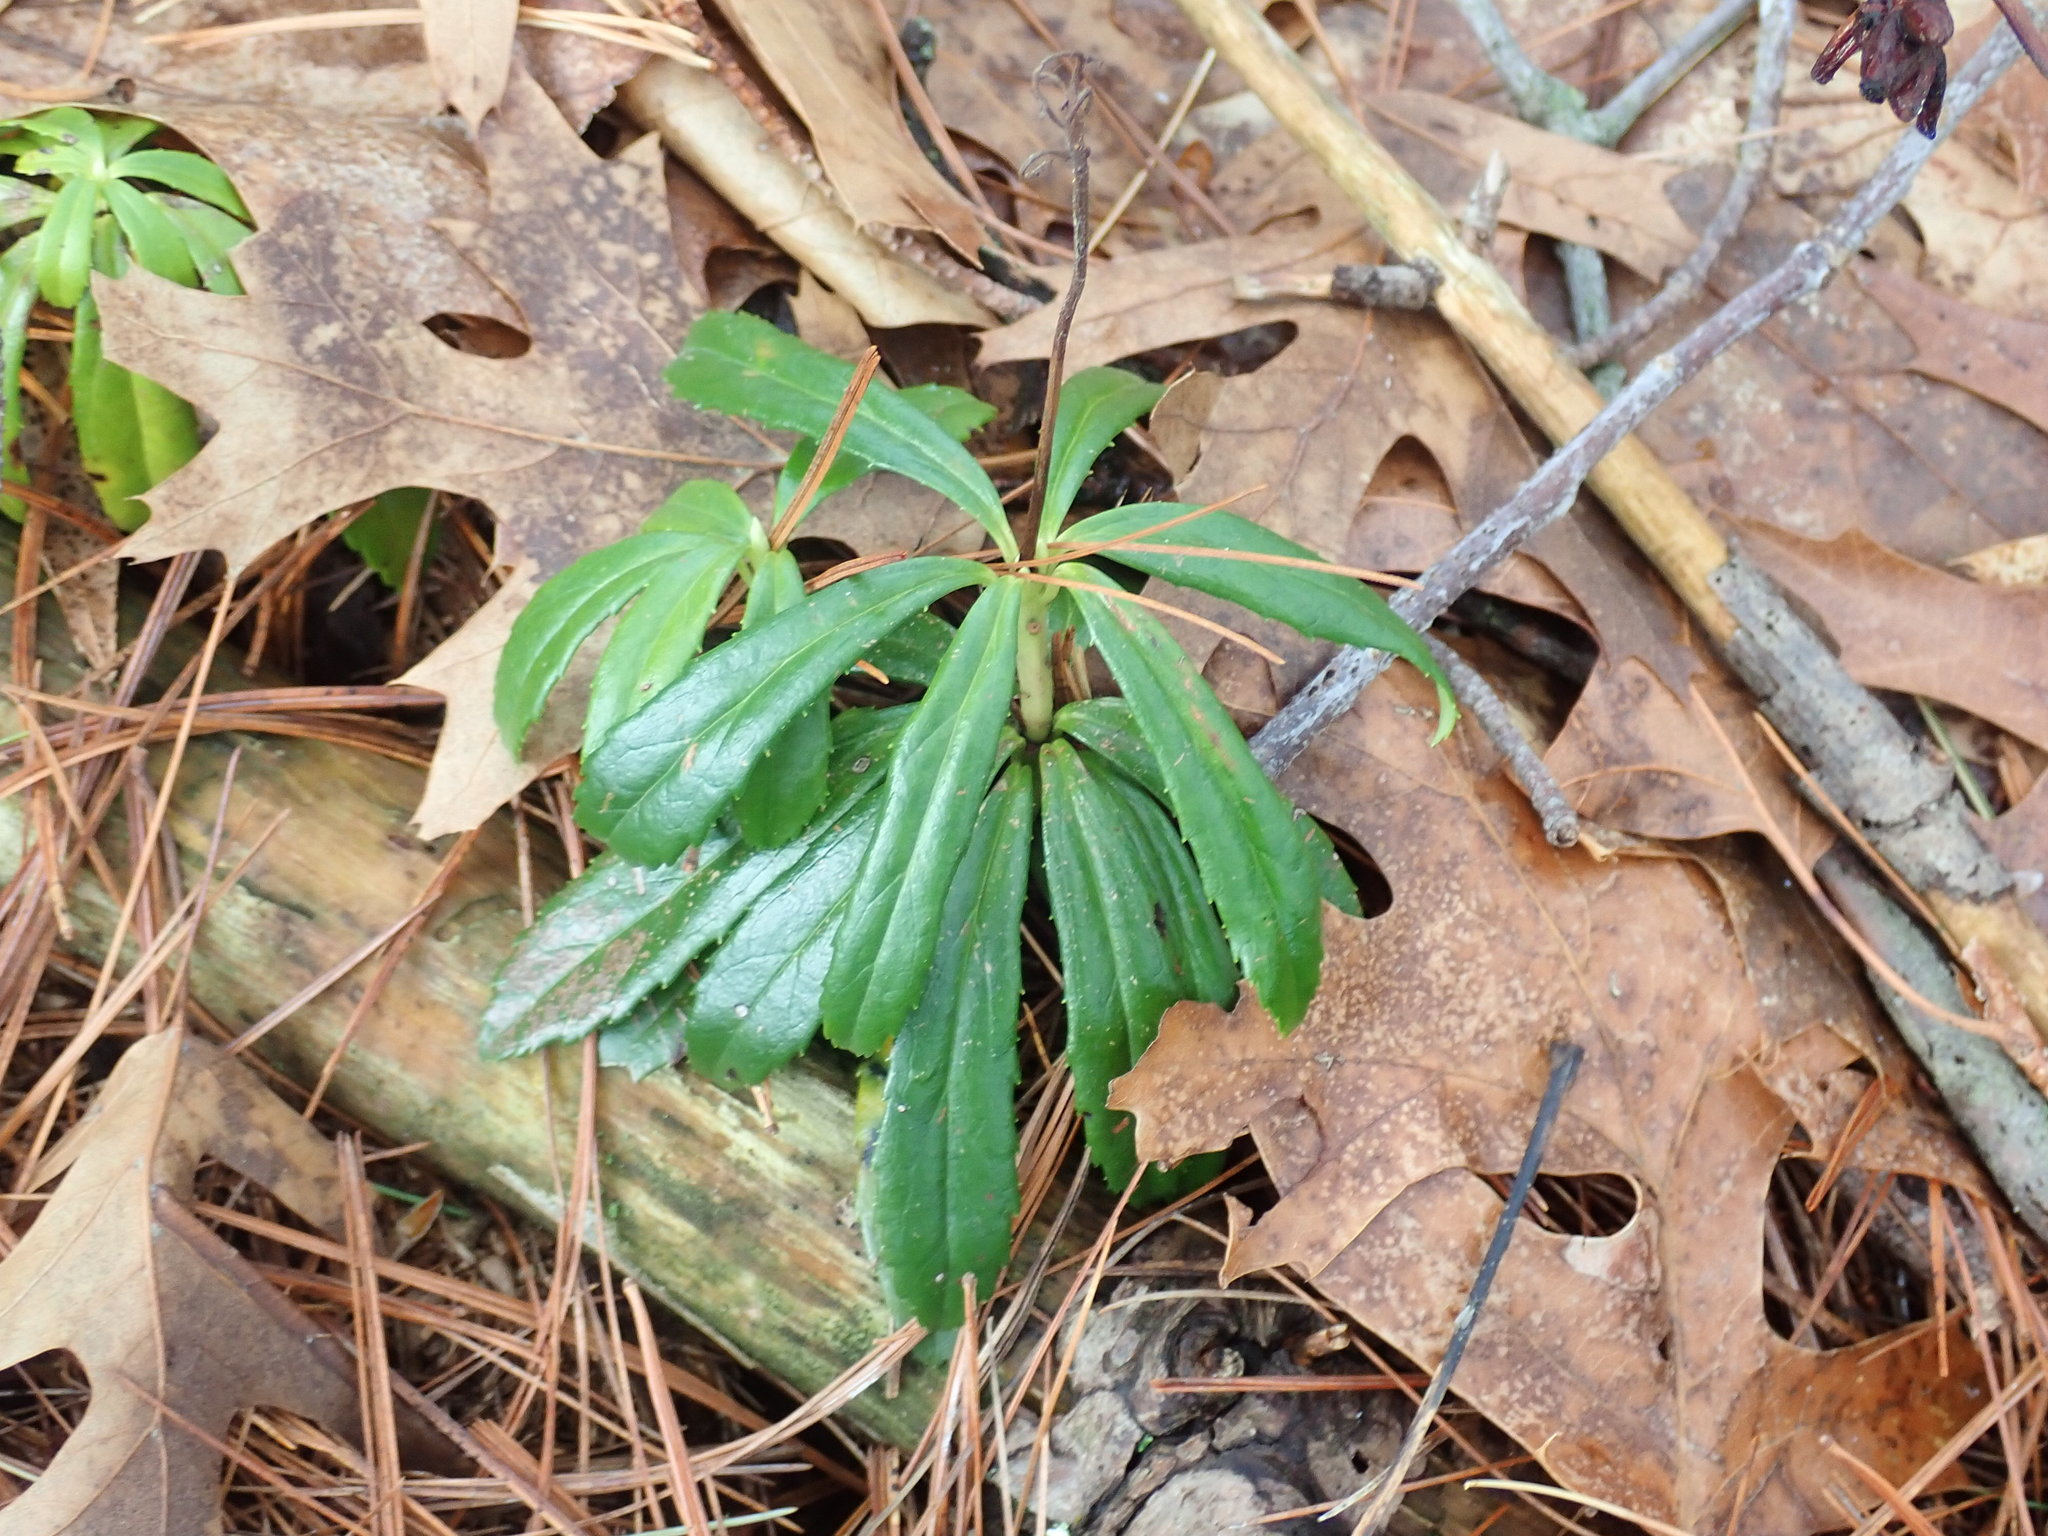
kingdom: Plantae
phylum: Tracheophyta
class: Magnoliopsida
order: Ericales
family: Ericaceae
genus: Chimaphila
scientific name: Chimaphila umbellata
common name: Pipsissewa
